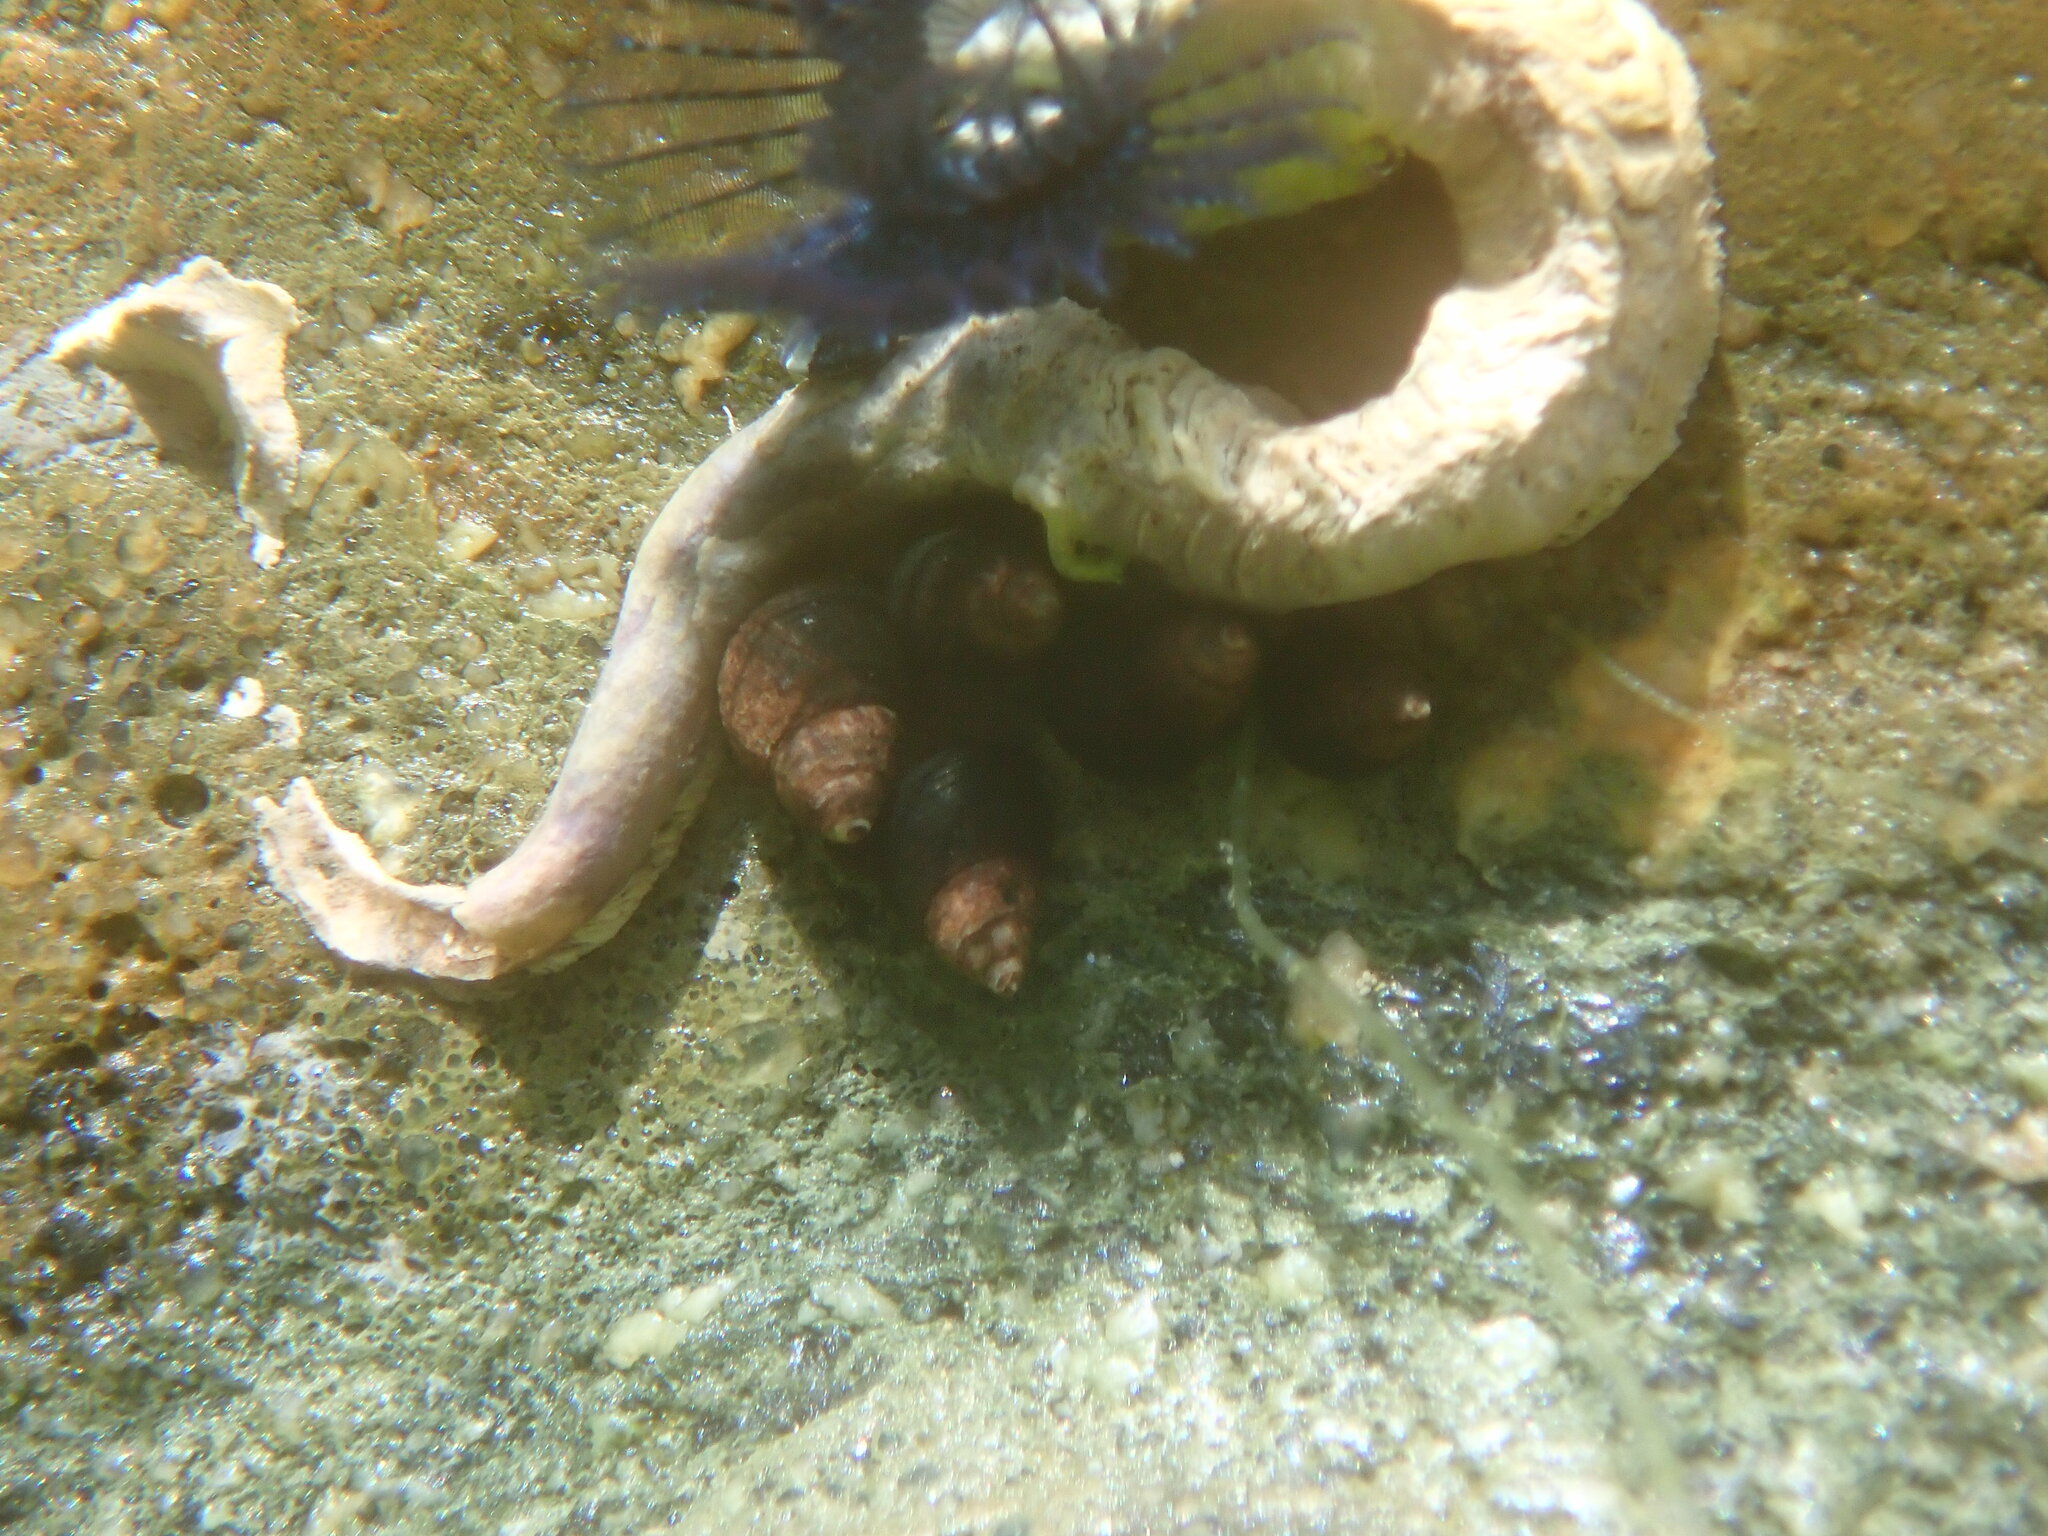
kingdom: Animalia
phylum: Mollusca
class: Gastropoda
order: Littorinimorpha
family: Littorinidae
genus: Austrolittorina
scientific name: Austrolittorina cincta
